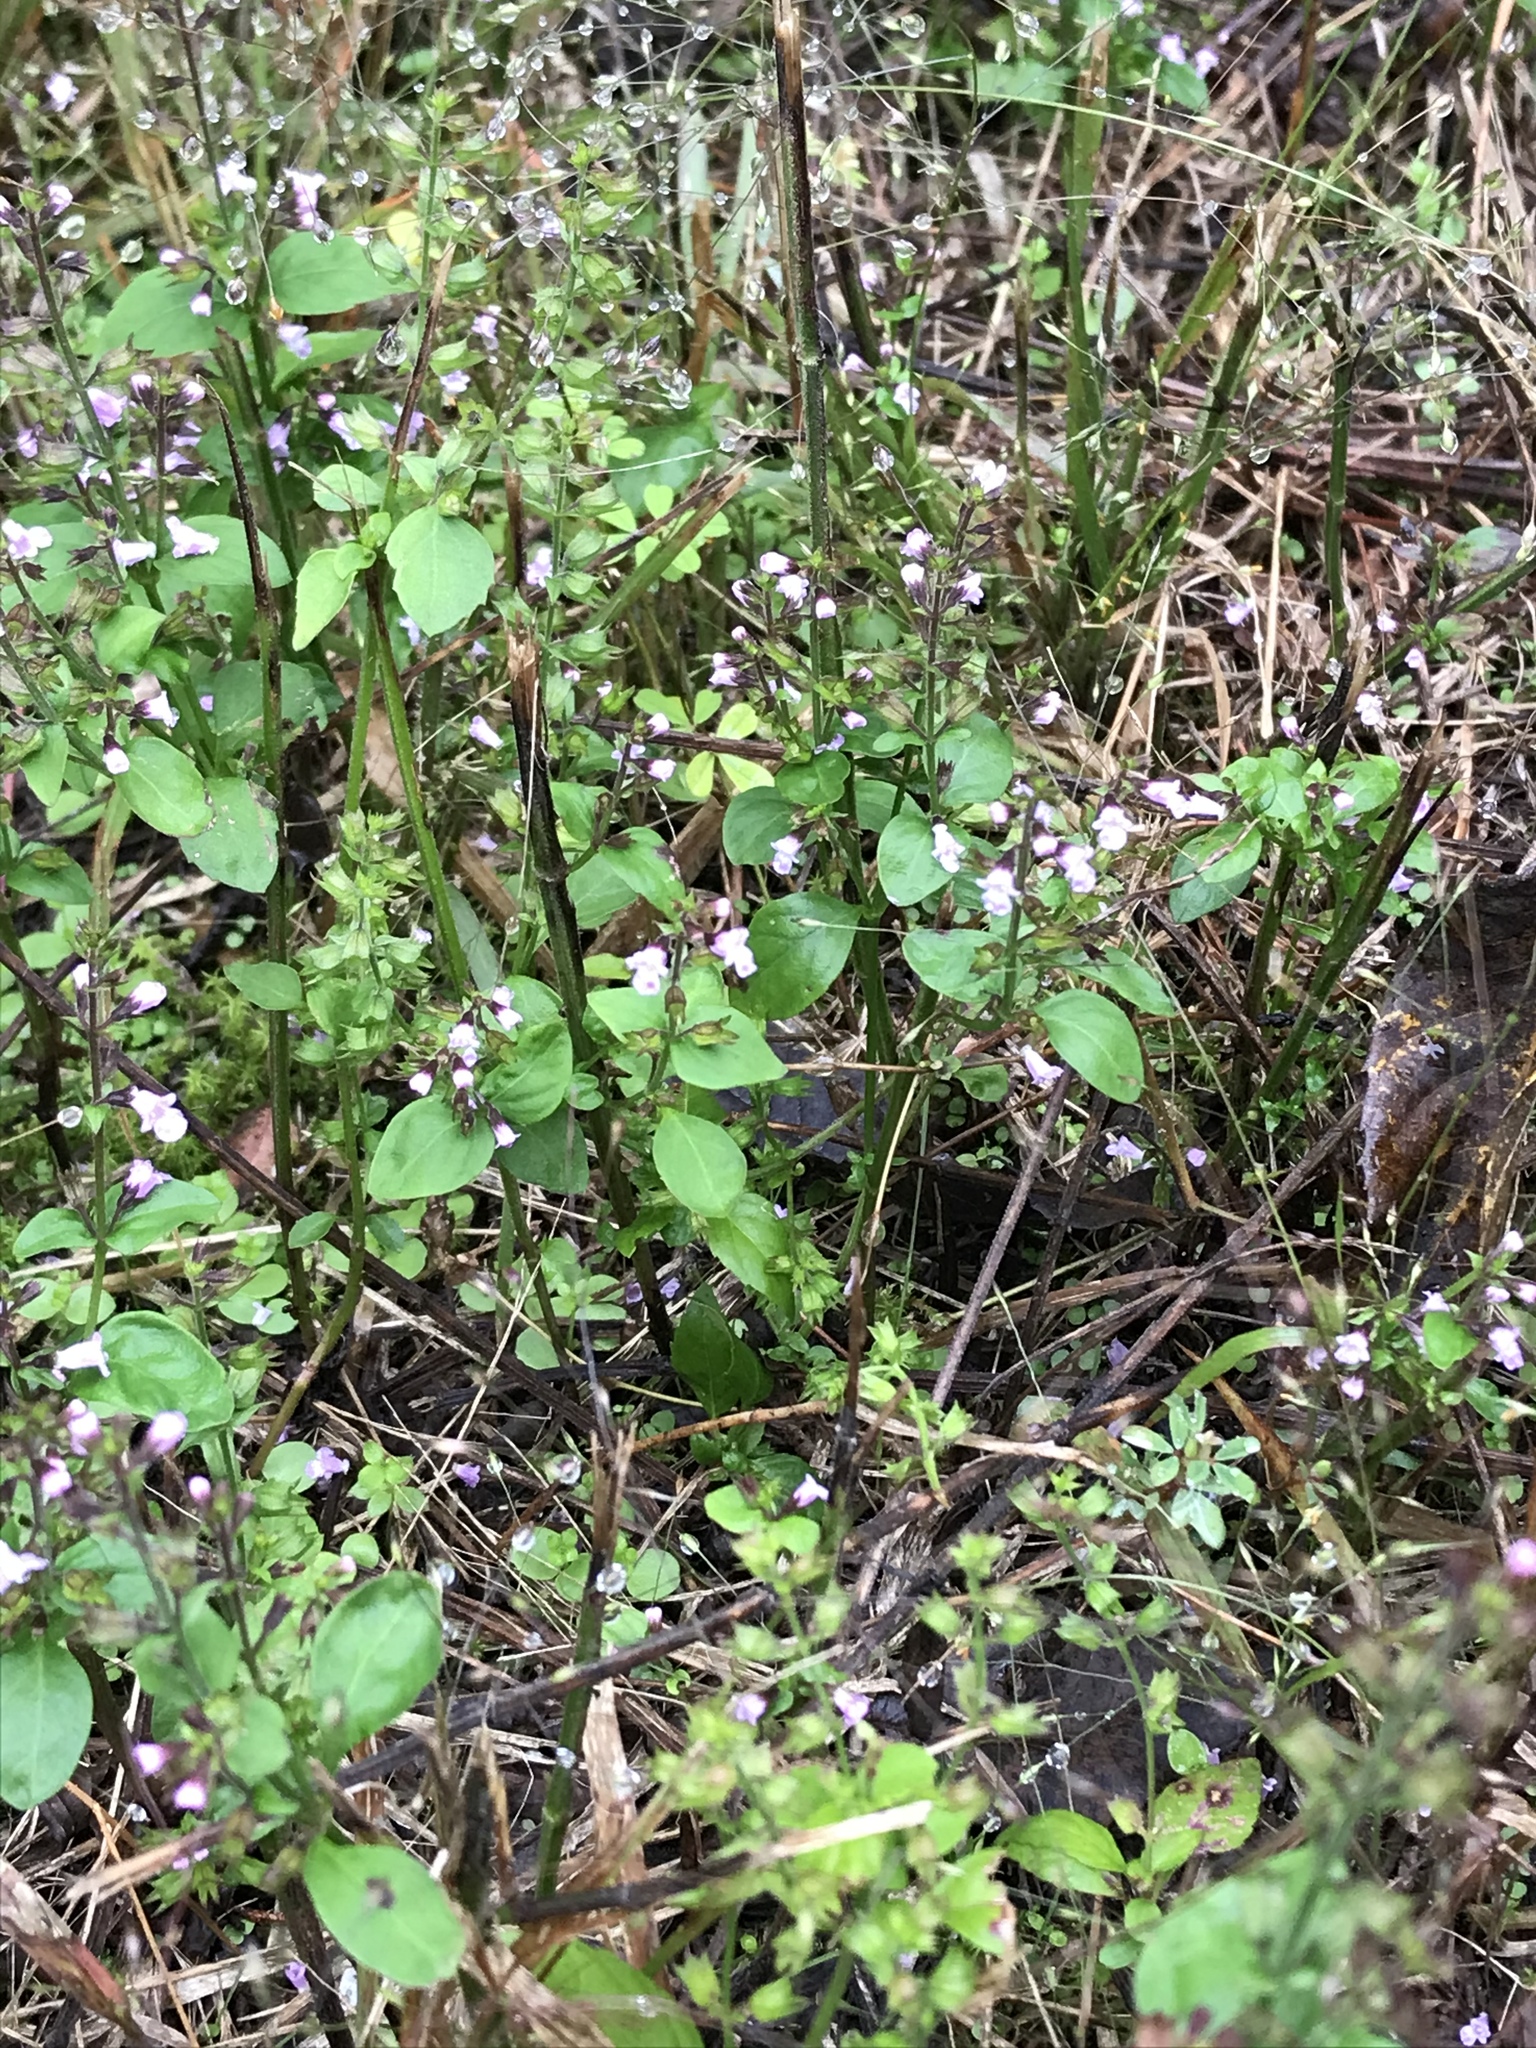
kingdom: Plantae
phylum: Tracheophyta
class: Magnoliopsida
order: Lamiales
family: Lamiaceae
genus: Mosla
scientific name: Mosla dianthera
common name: Miniature beefsteakplant
